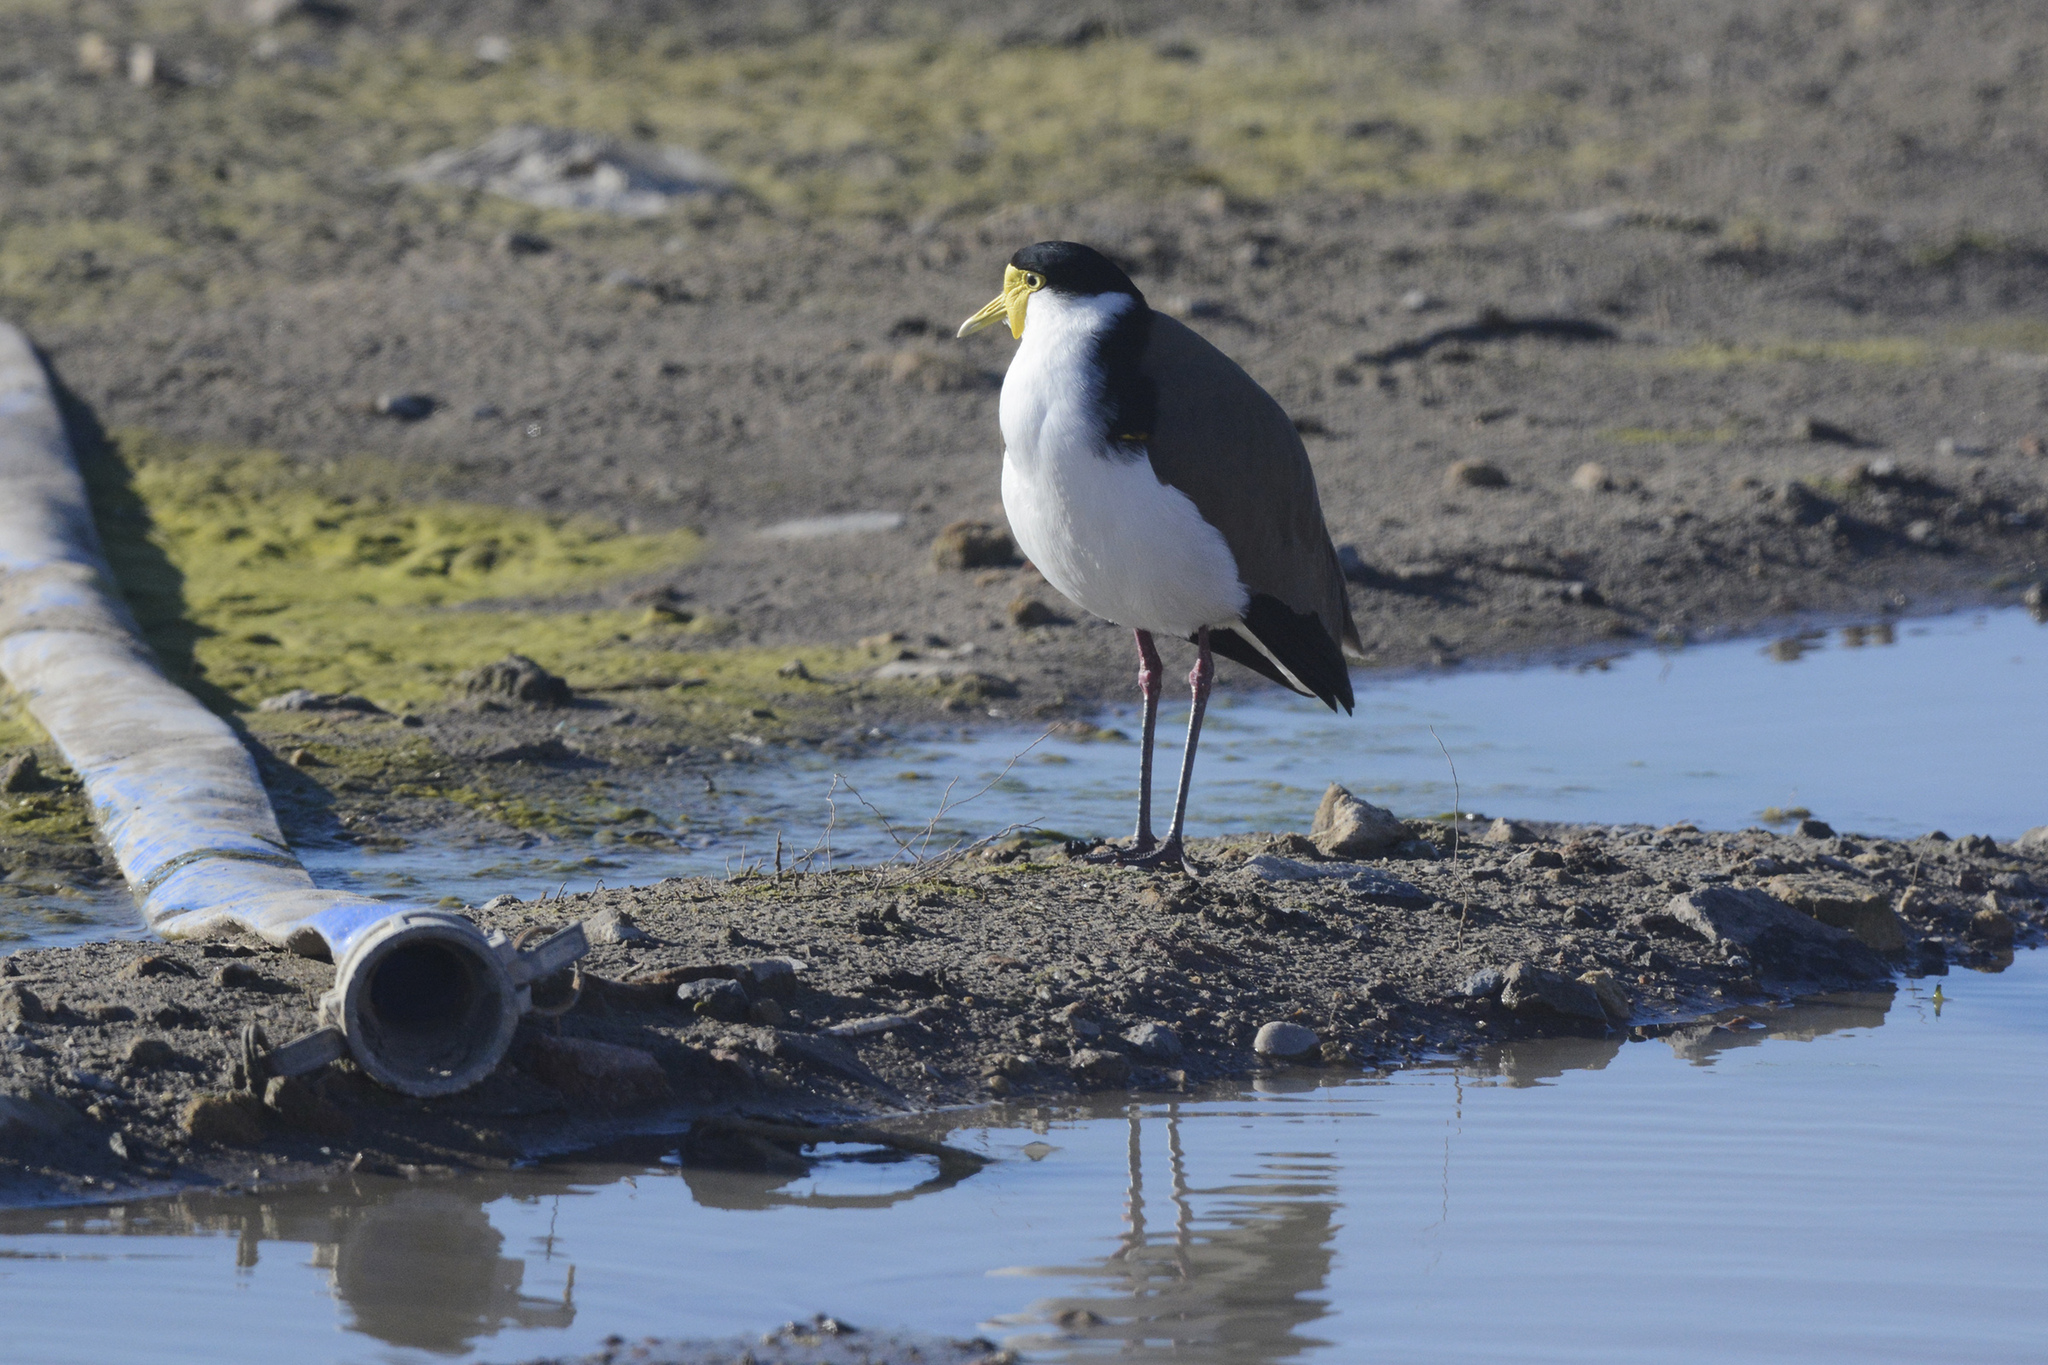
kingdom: Animalia
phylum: Chordata
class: Aves
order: Charadriiformes
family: Charadriidae
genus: Vanellus
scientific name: Vanellus miles
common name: Masked lapwing
